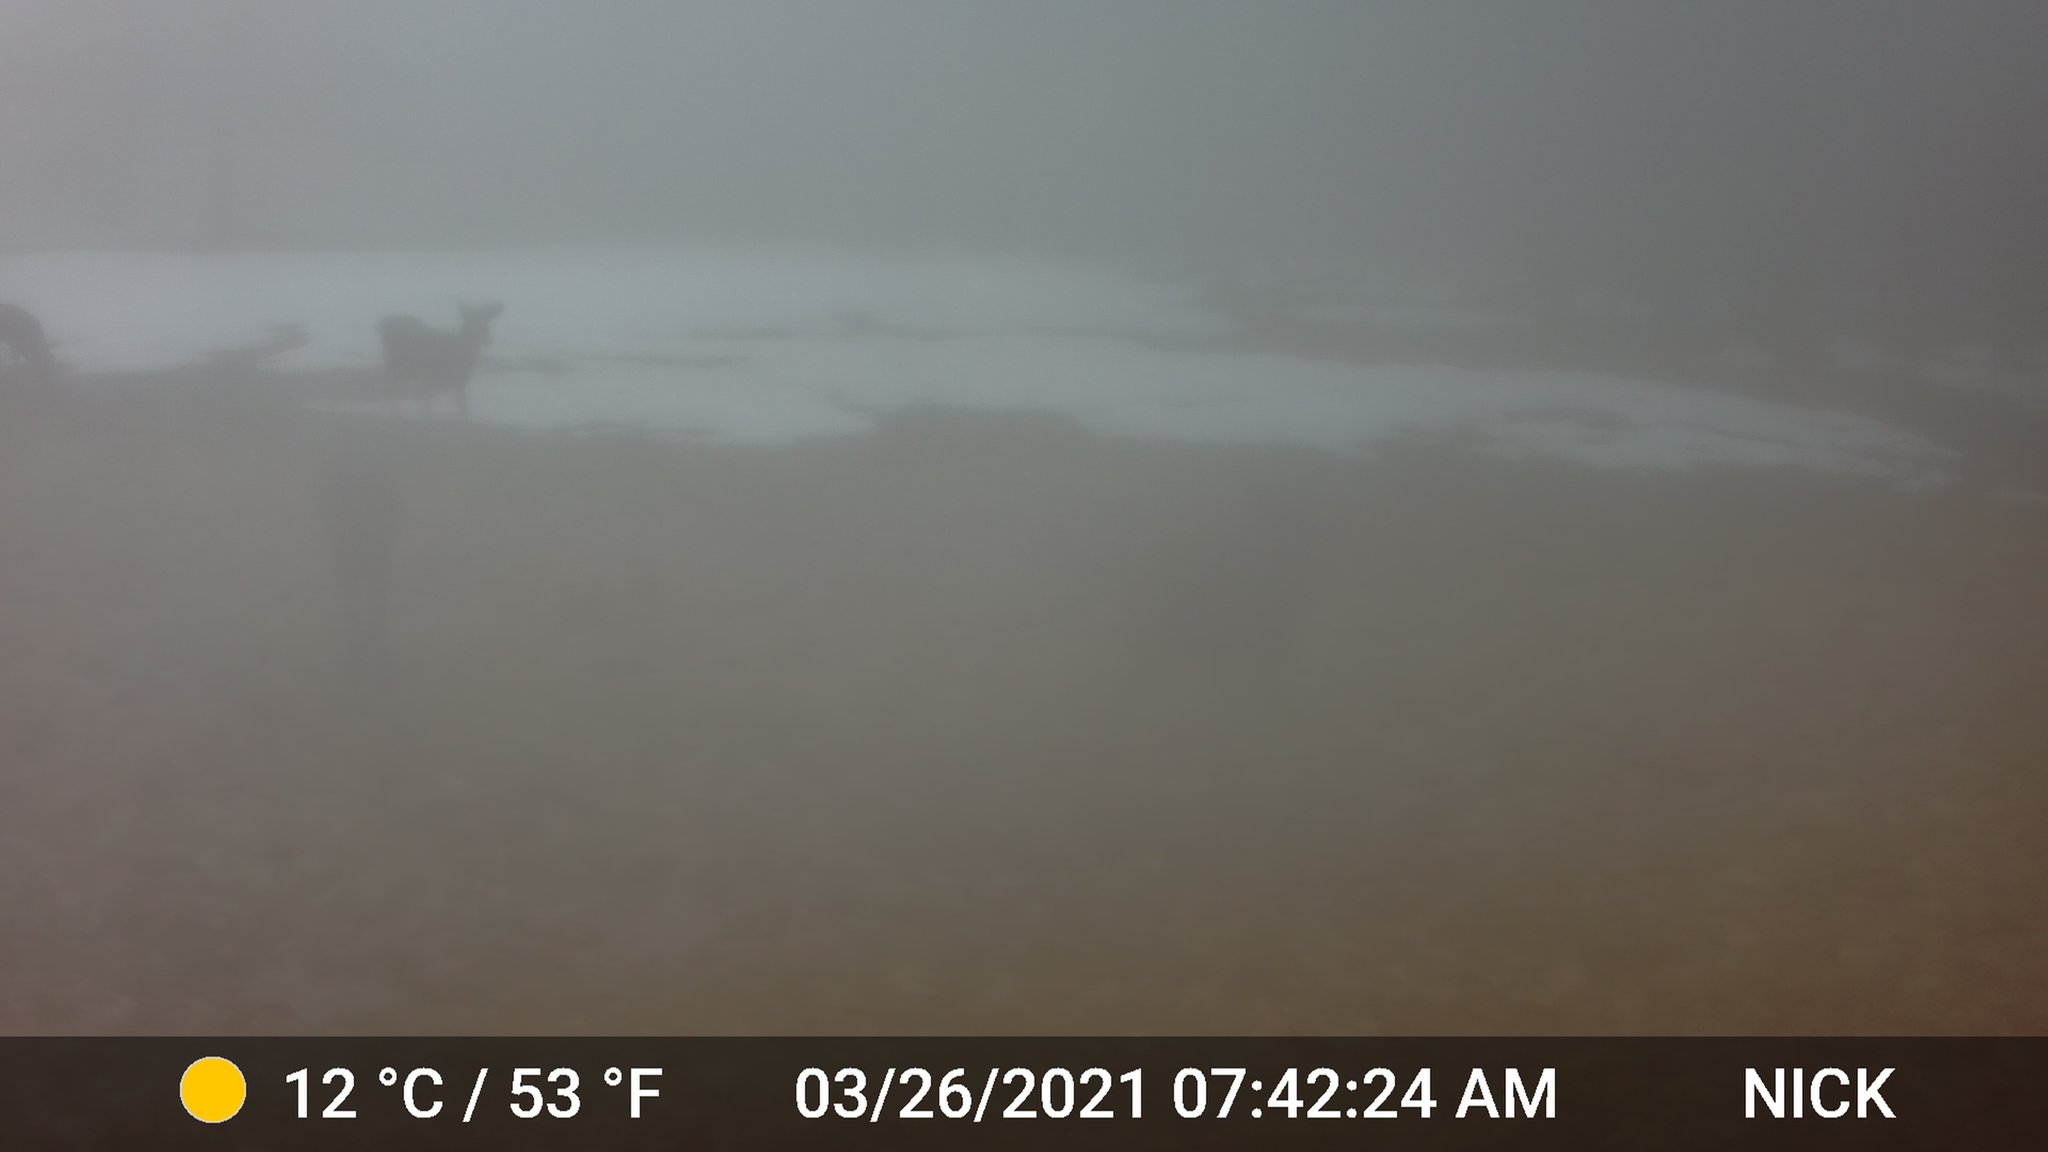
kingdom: Animalia
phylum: Chordata
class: Mammalia
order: Artiodactyla
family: Cervidae
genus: Odocoileus
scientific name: Odocoileus virginianus
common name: White-tailed deer
